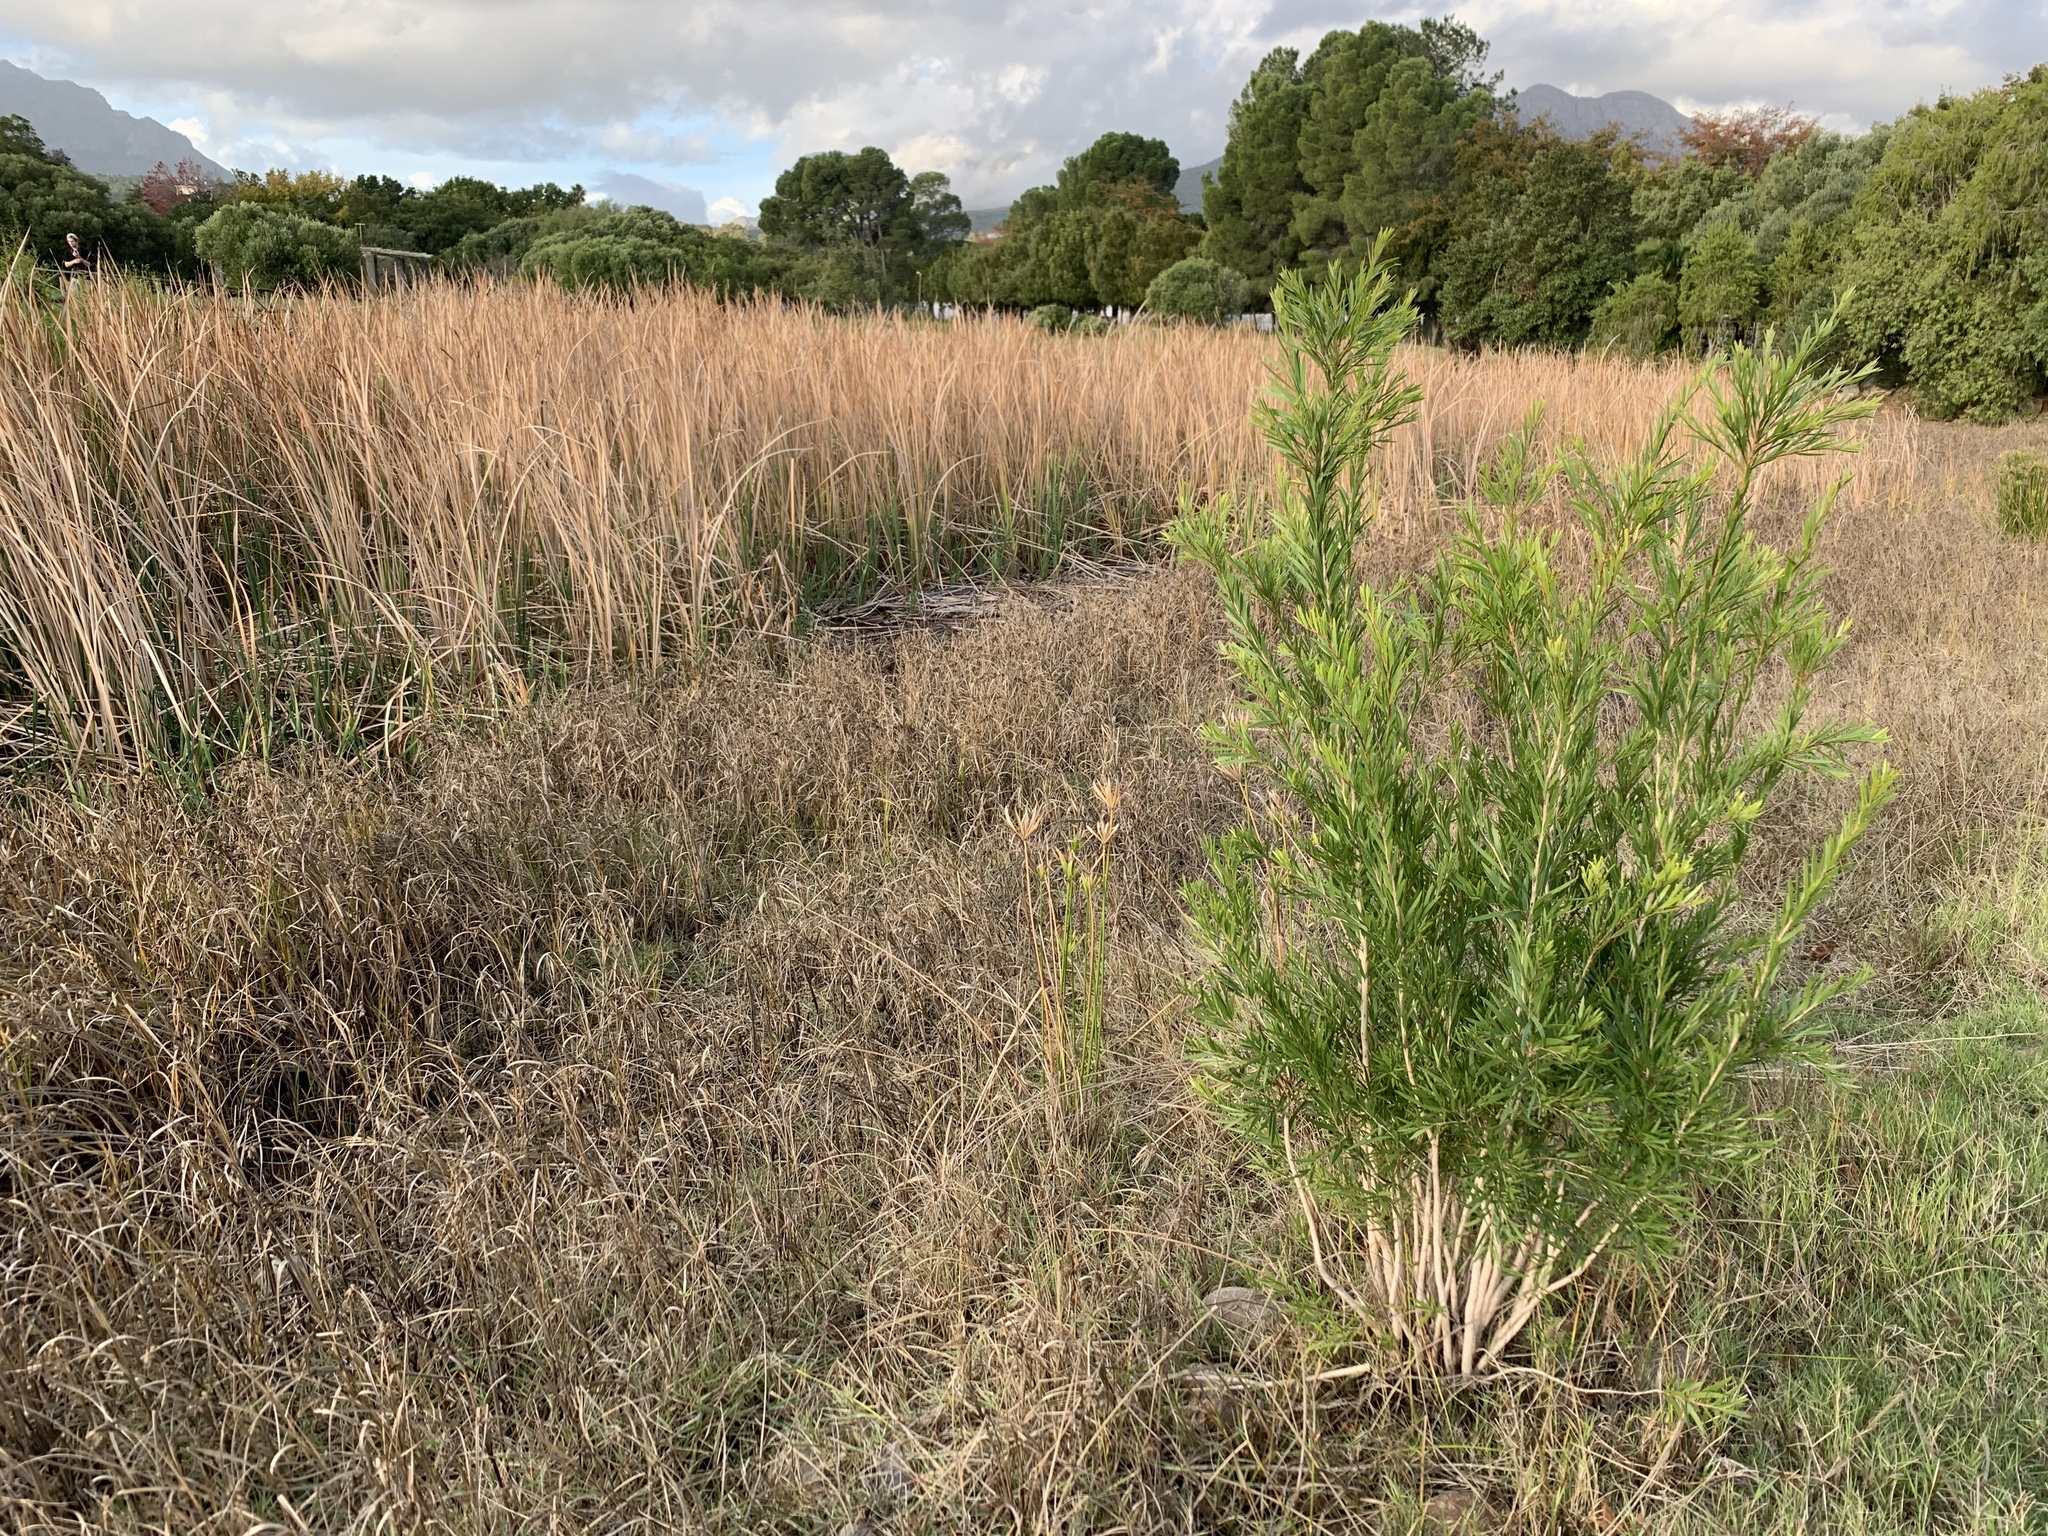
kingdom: Plantae
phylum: Tracheophyta
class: Magnoliopsida
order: Myrtales
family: Myrtaceae
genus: Callistemon
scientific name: Callistemon viminalis
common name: Drooping bottlebrush
